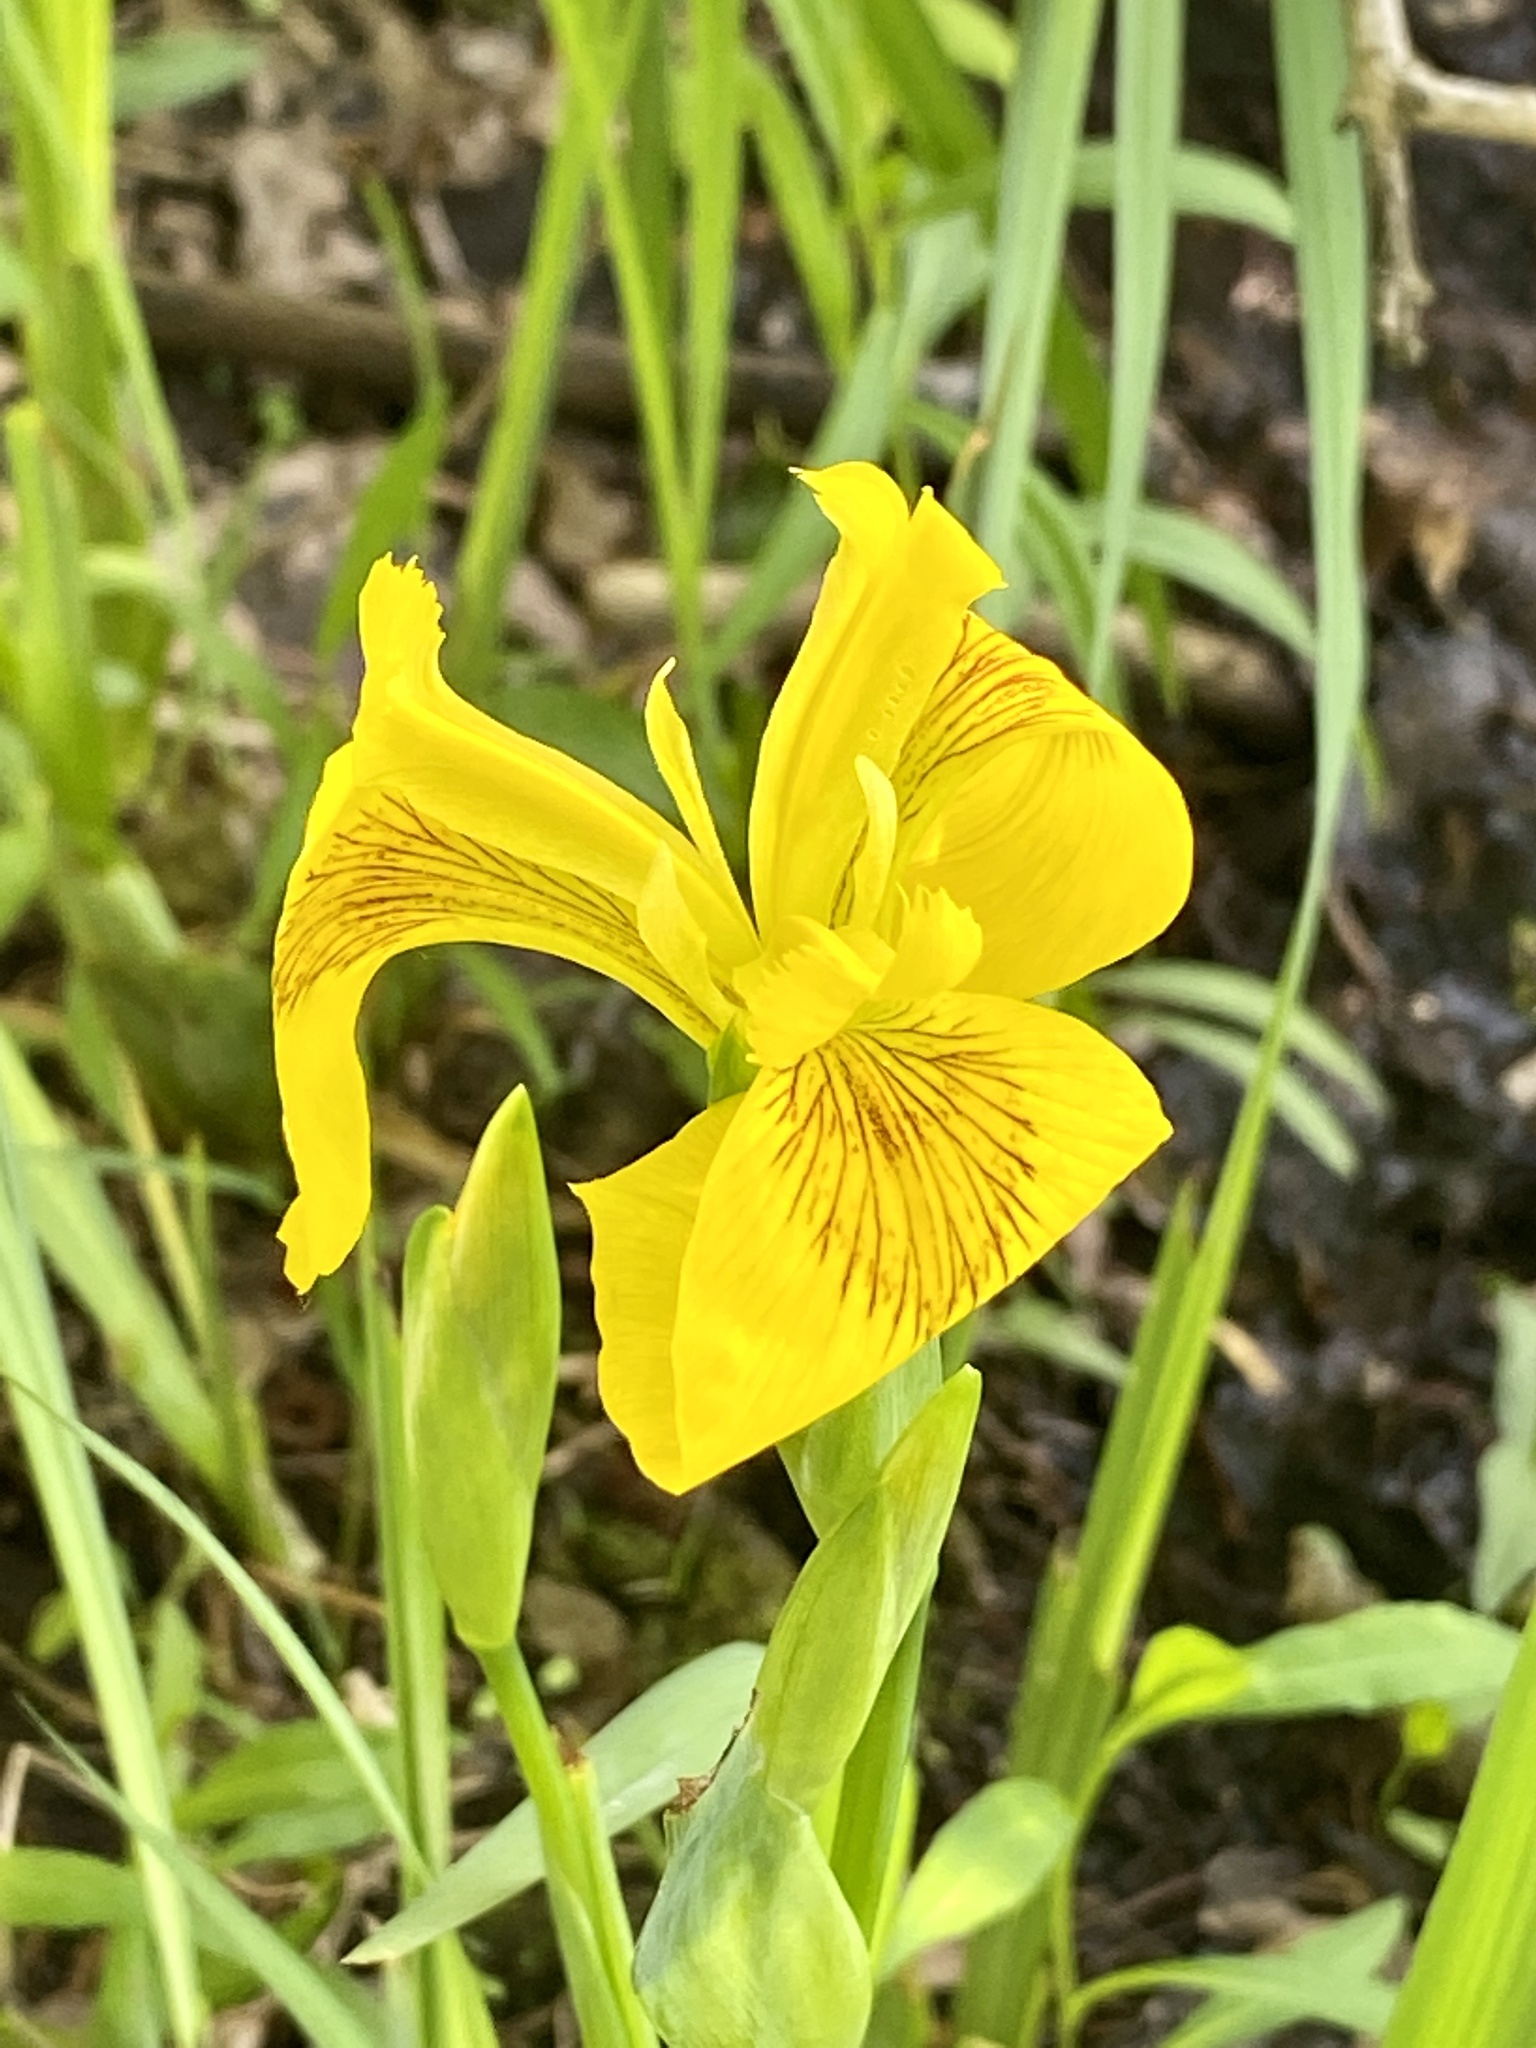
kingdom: Plantae
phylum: Tracheophyta
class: Liliopsida
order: Asparagales
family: Iridaceae
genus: Iris
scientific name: Iris pseudacorus
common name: Yellow flag
